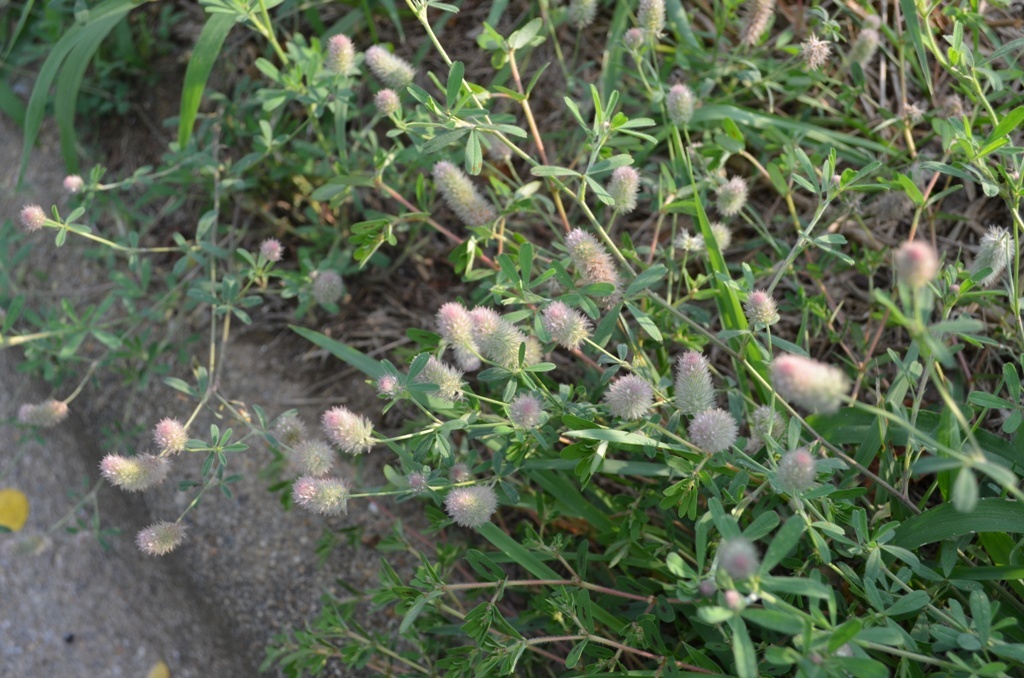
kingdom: Plantae
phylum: Tracheophyta
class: Magnoliopsida
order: Fabales
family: Fabaceae
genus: Trifolium
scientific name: Trifolium arvense
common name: Hare's-foot clover
